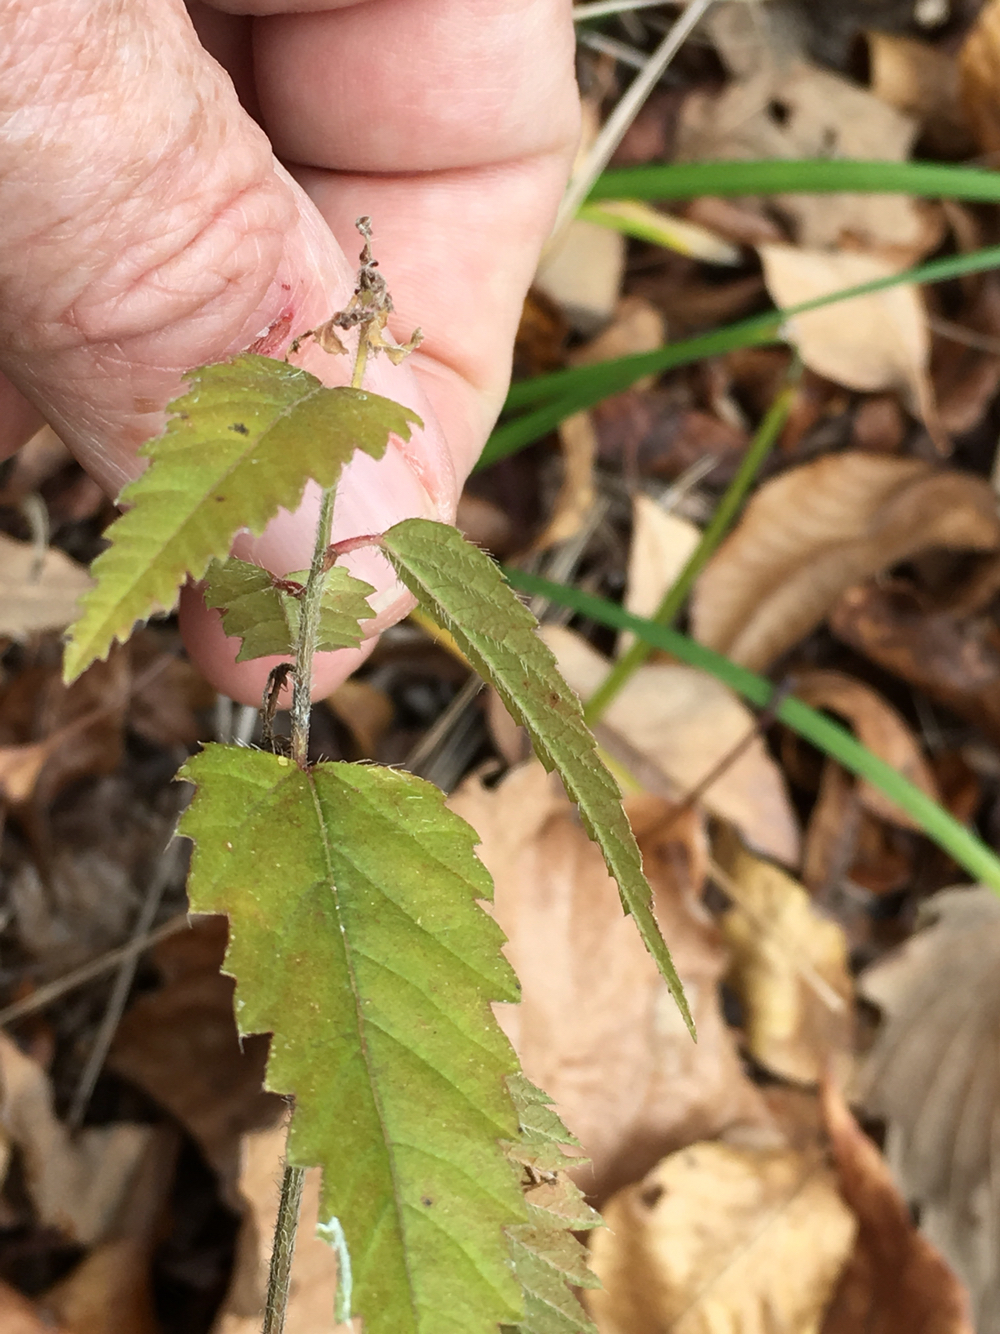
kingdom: Plantae
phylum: Tracheophyta
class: Magnoliopsida
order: Malpighiales
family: Euphorbiaceae
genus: Tragia
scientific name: Tragia urticifolia
